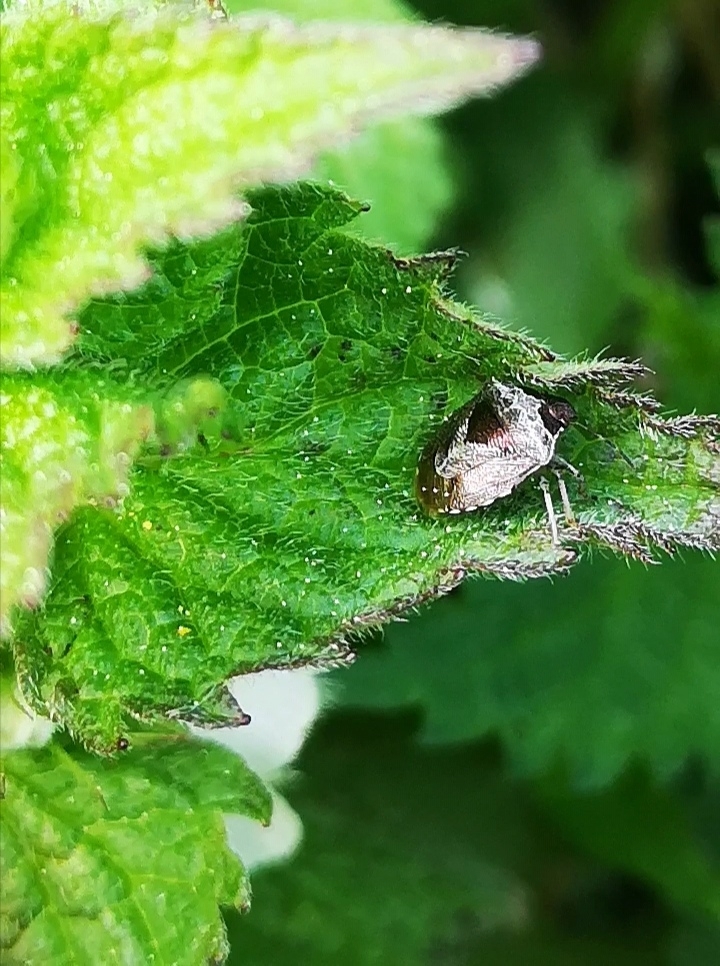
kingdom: Animalia
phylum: Arthropoda
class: Insecta
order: Hemiptera
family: Pentatomidae
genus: Eysarcoris
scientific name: Eysarcoris venustissimus
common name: Woundwort shieldbug
